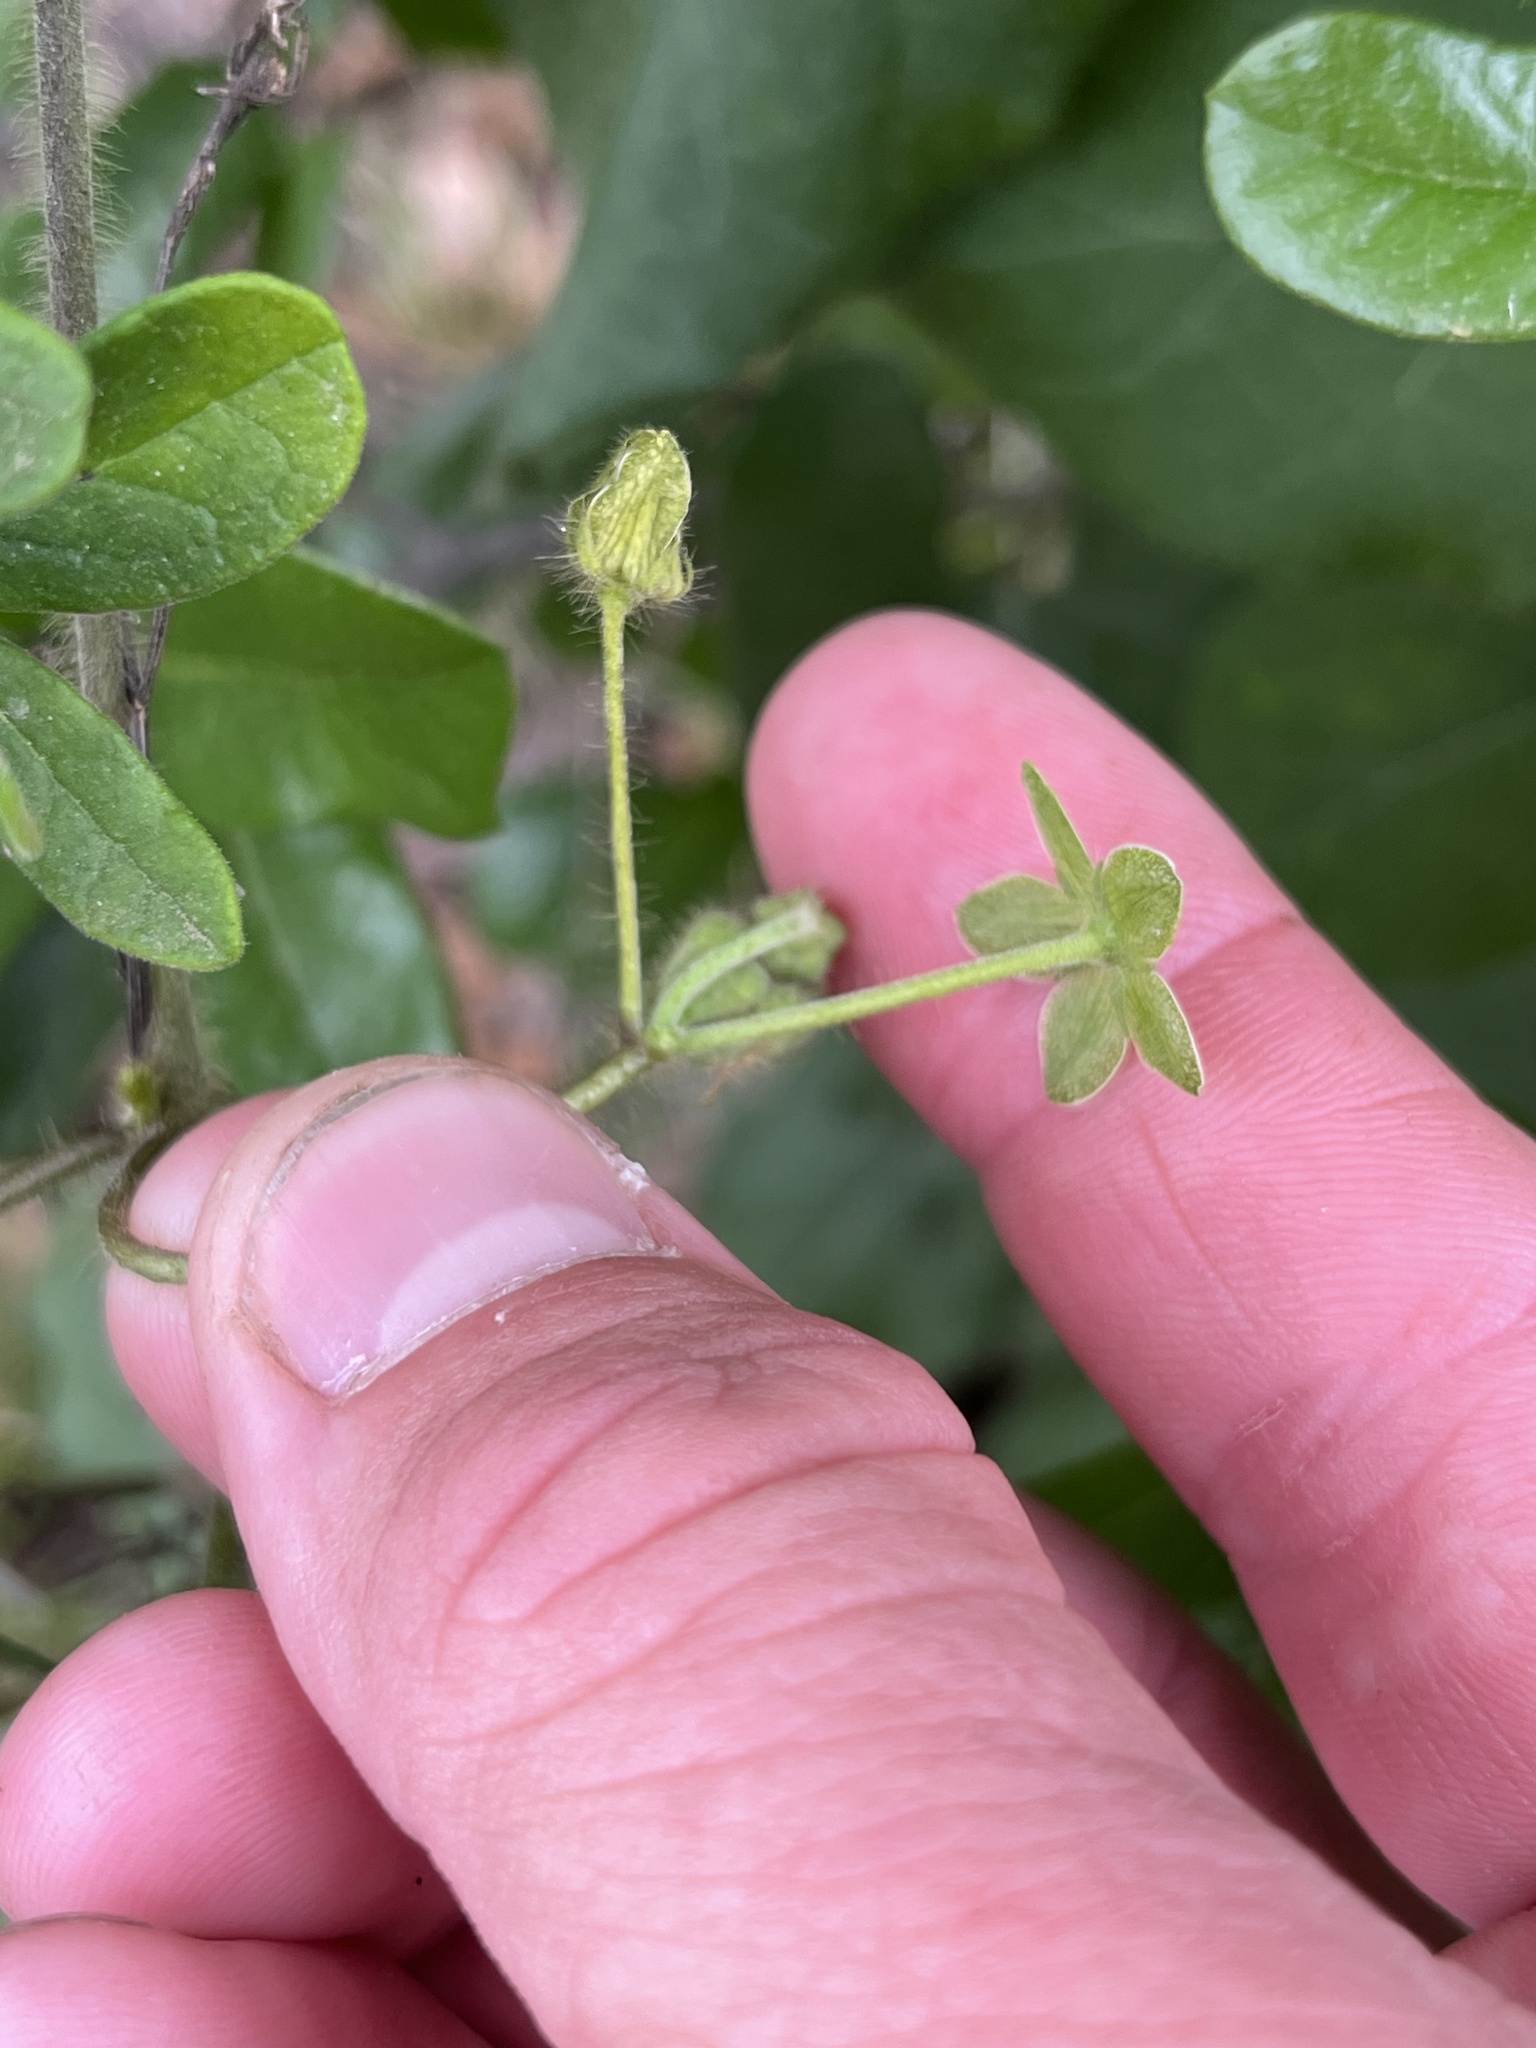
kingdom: Plantae
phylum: Tracheophyta
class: Magnoliopsida
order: Gentianales
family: Apocynaceae
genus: Dictyanthus
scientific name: Dictyanthus reticulatus
